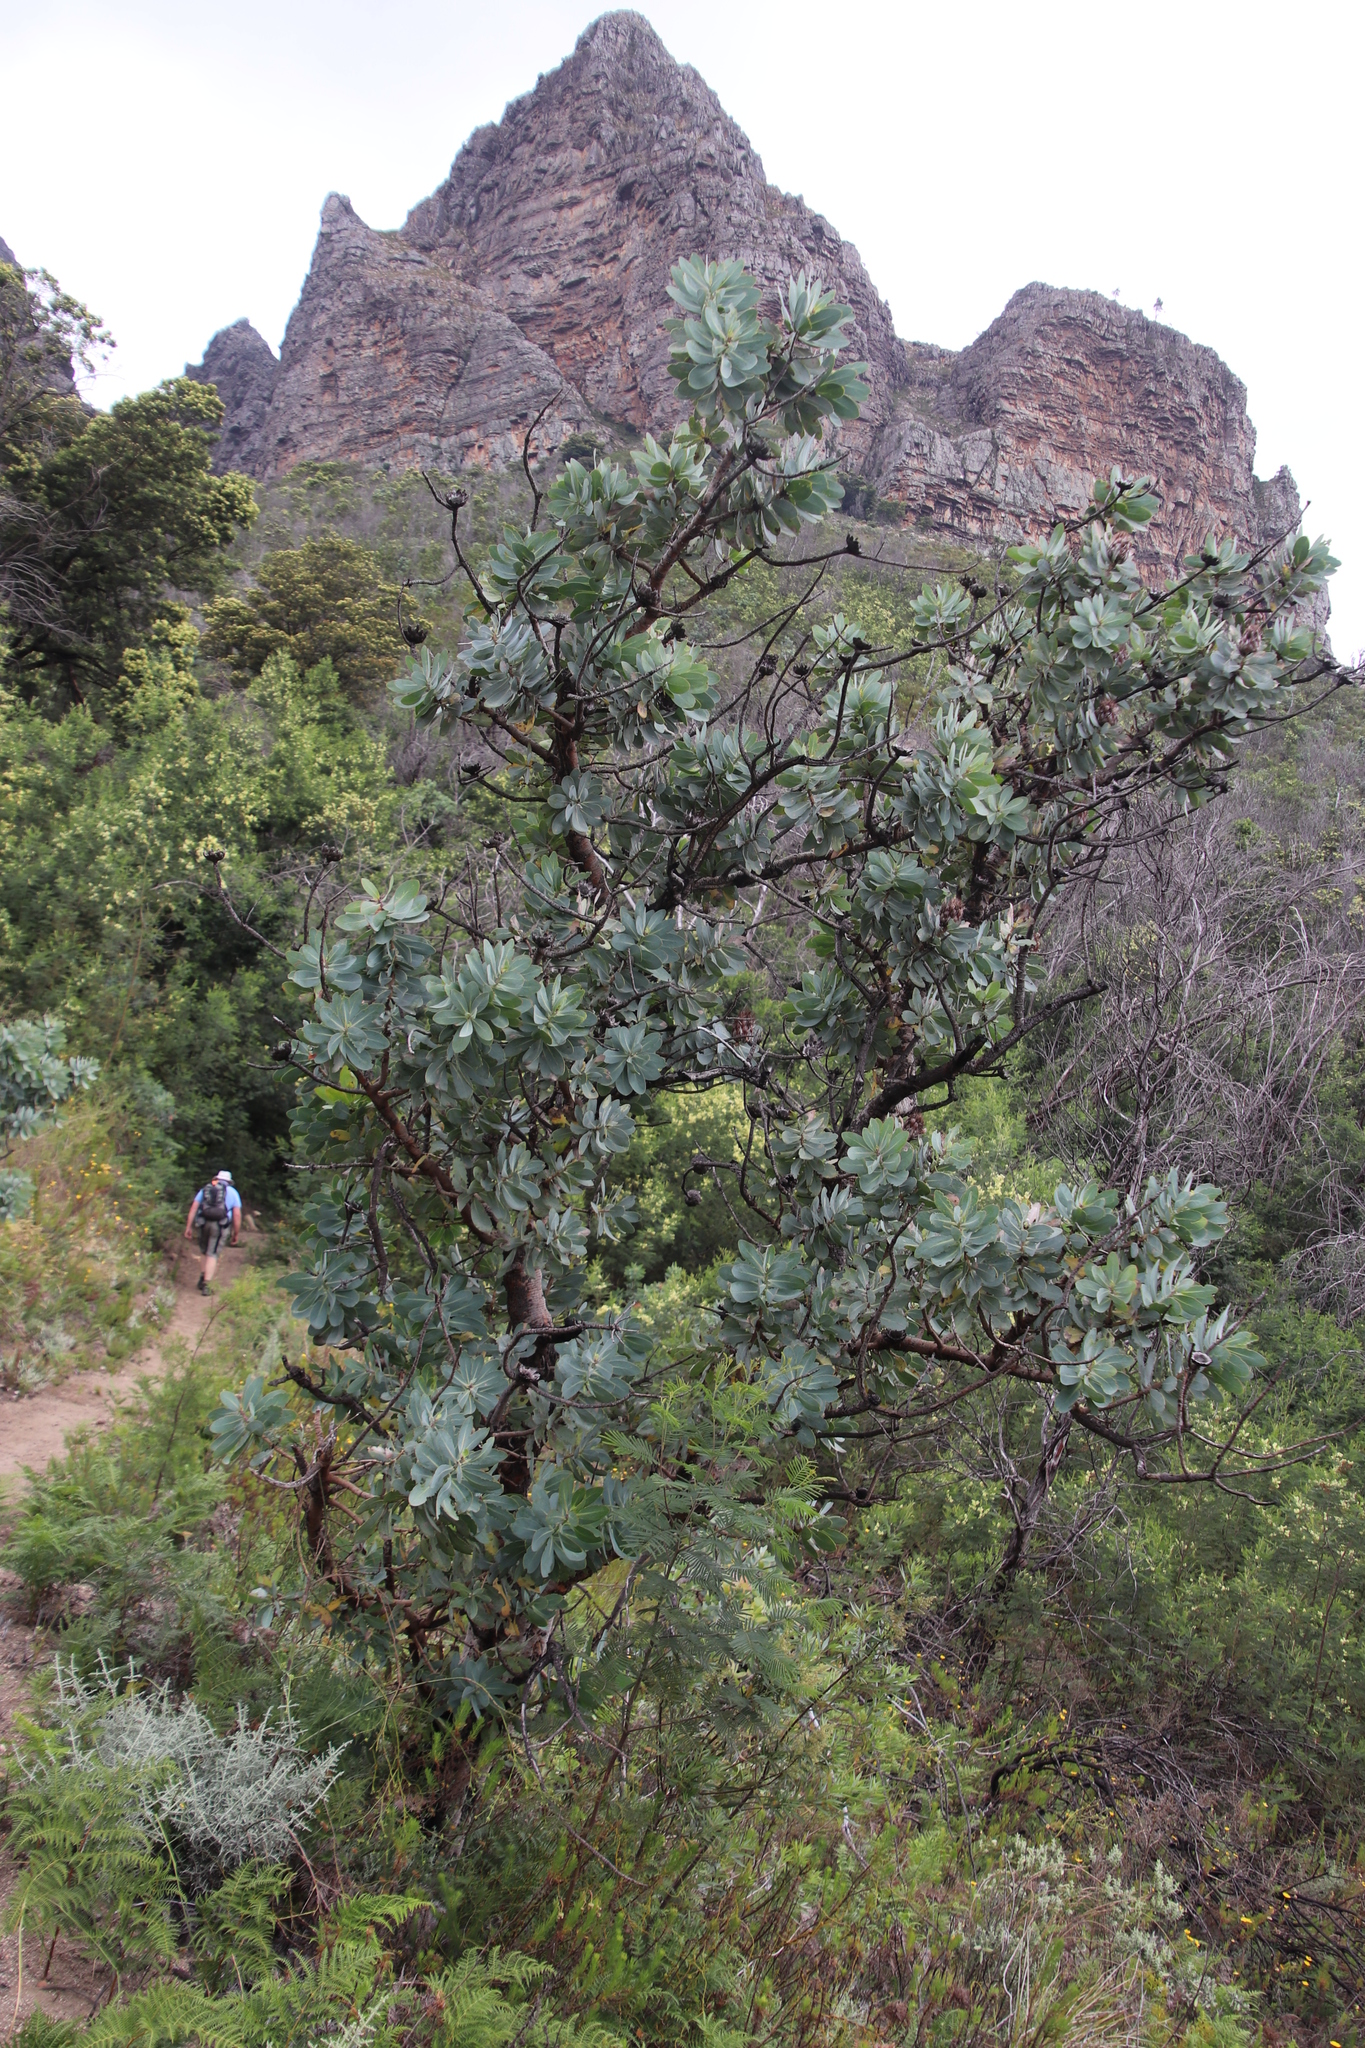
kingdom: Plantae
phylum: Tracheophyta
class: Magnoliopsida
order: Proteales
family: Proteaceae
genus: Protea
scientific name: Protea nitida
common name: Tree protea
